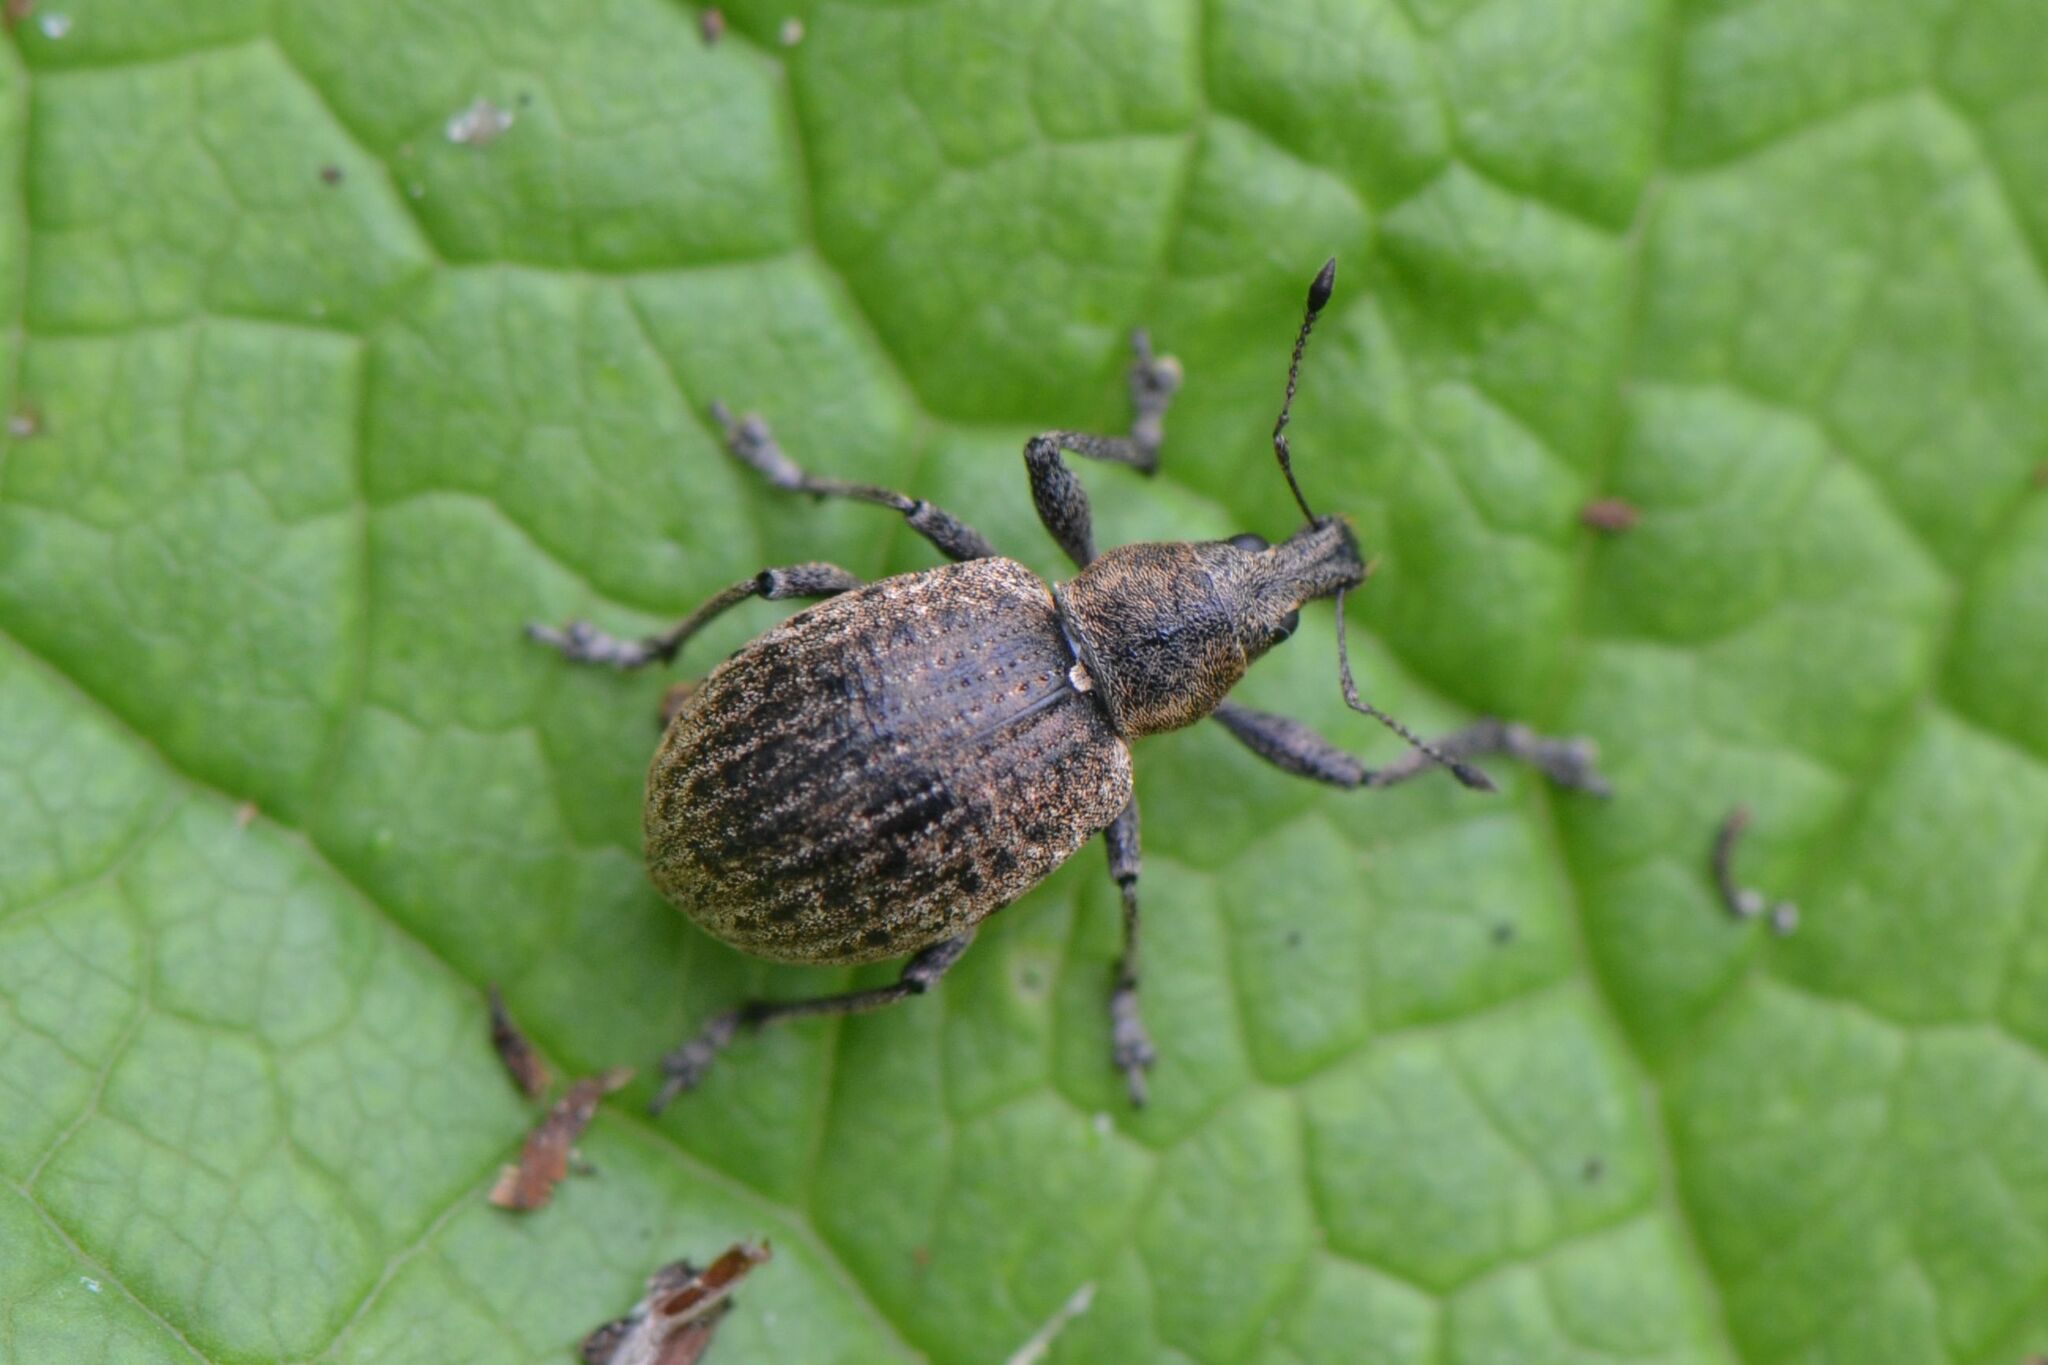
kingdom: Animalia
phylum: Arthropoda
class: Insecta
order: Coleoptera
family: Curculionidae
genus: Liophloeus
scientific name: Liophloeus tessulatus
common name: Weevil
